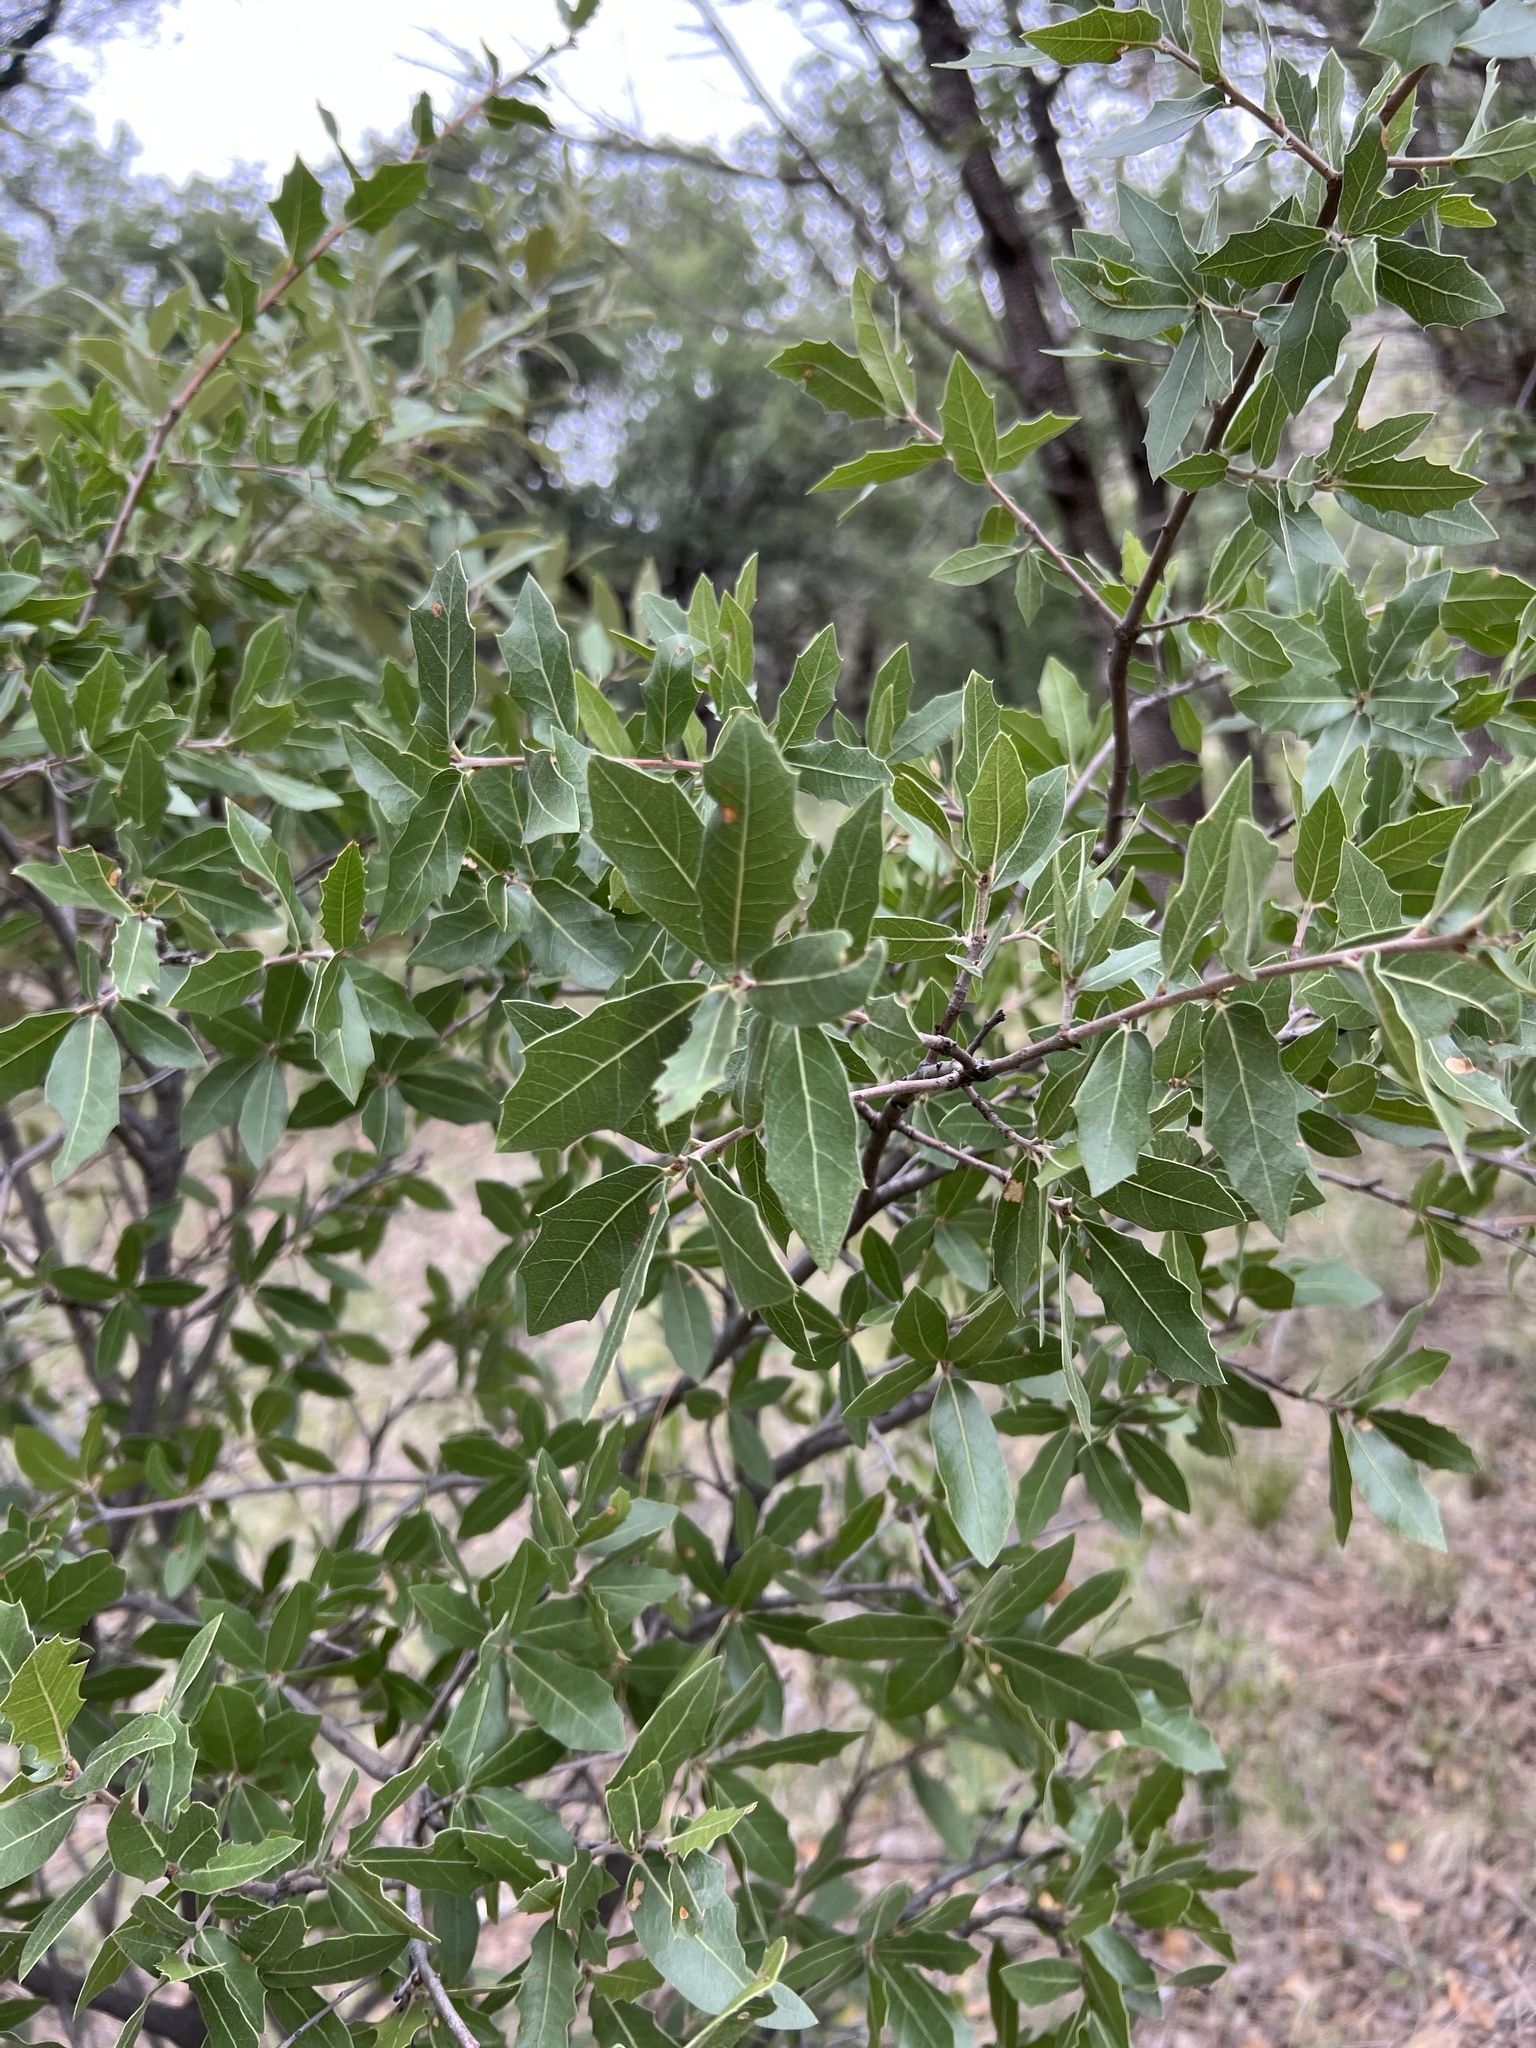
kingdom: Plantae
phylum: Tracheophyta
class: Magnoliopsida
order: Fagales
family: Fagaceae
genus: Quercus
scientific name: Quercus emoryi
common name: Emory oak
